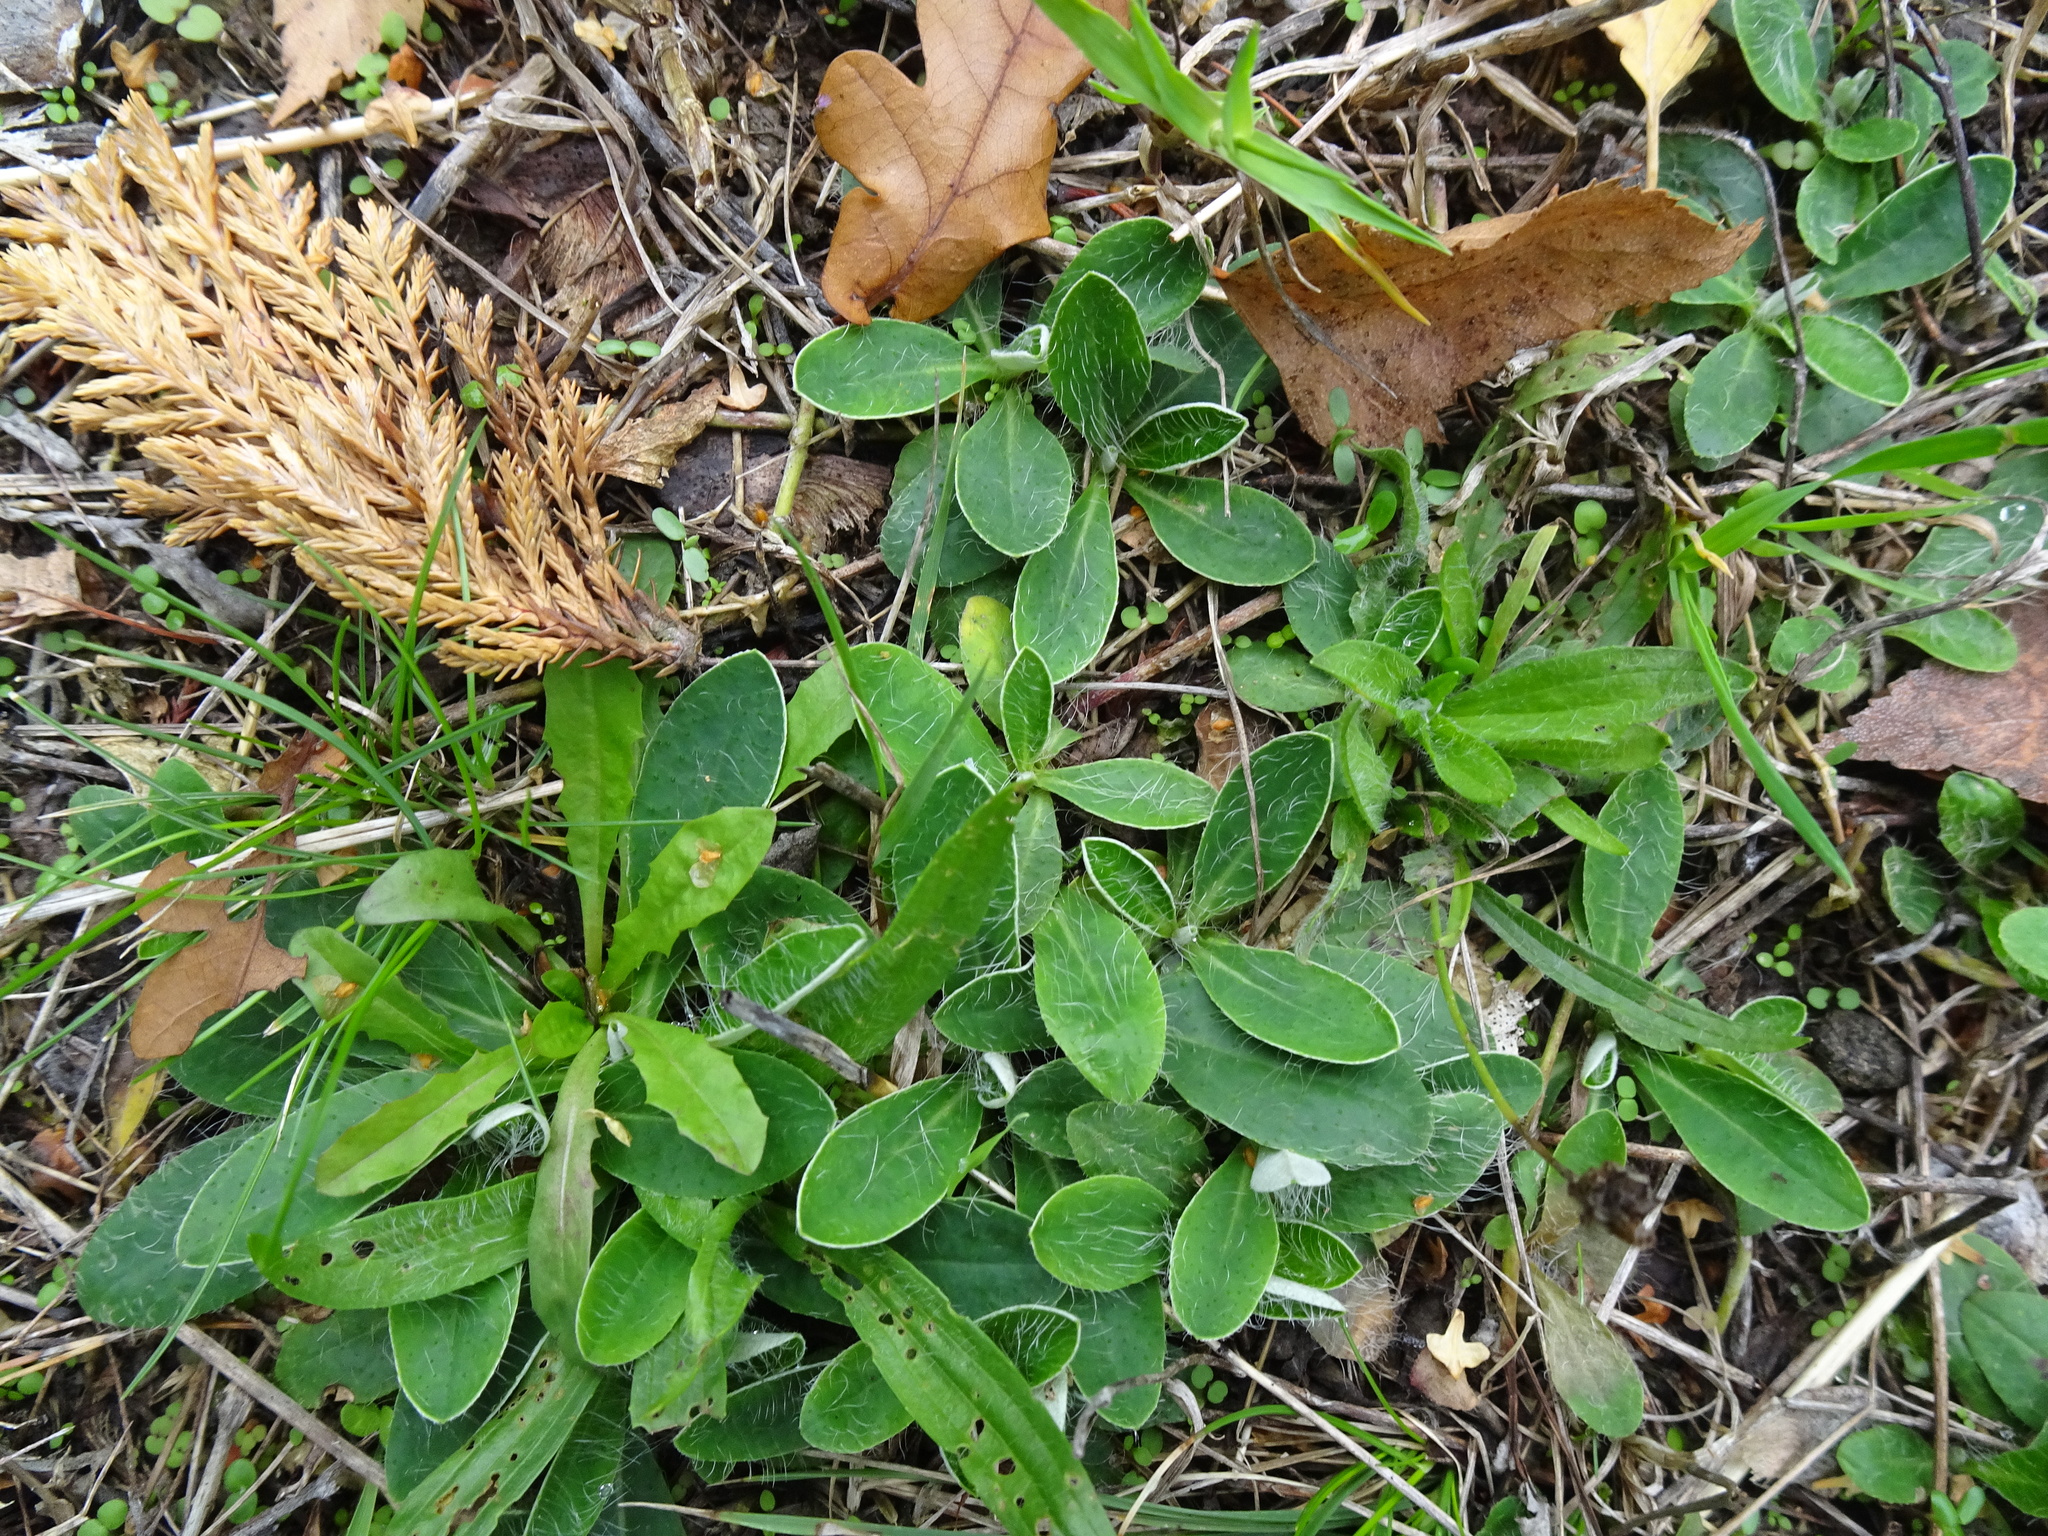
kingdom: Plantae
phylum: Tracheophyta
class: Magnoliopsida
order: Asterales
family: Asteraceae
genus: Pilosella
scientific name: Pilosella officinarum
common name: Mouse-ear hawkweed
